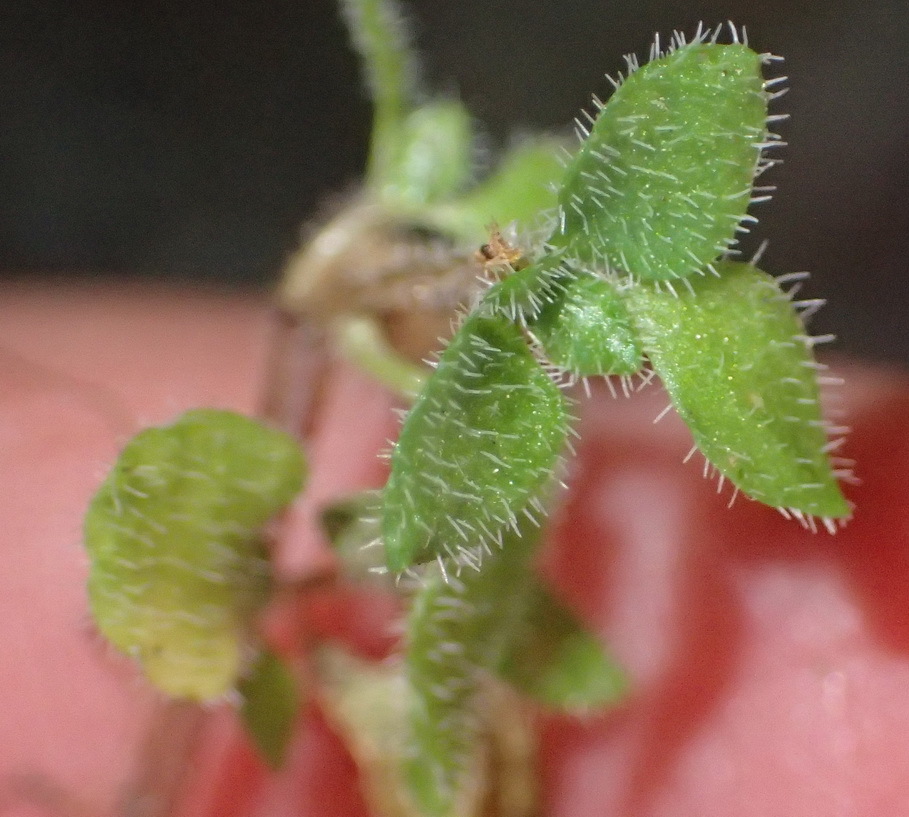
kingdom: Plantae
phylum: Tracheophyta
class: Magnoliopsida
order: Saxifragales
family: Crassulaceae
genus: Crassula
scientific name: Crassula peculiaris
